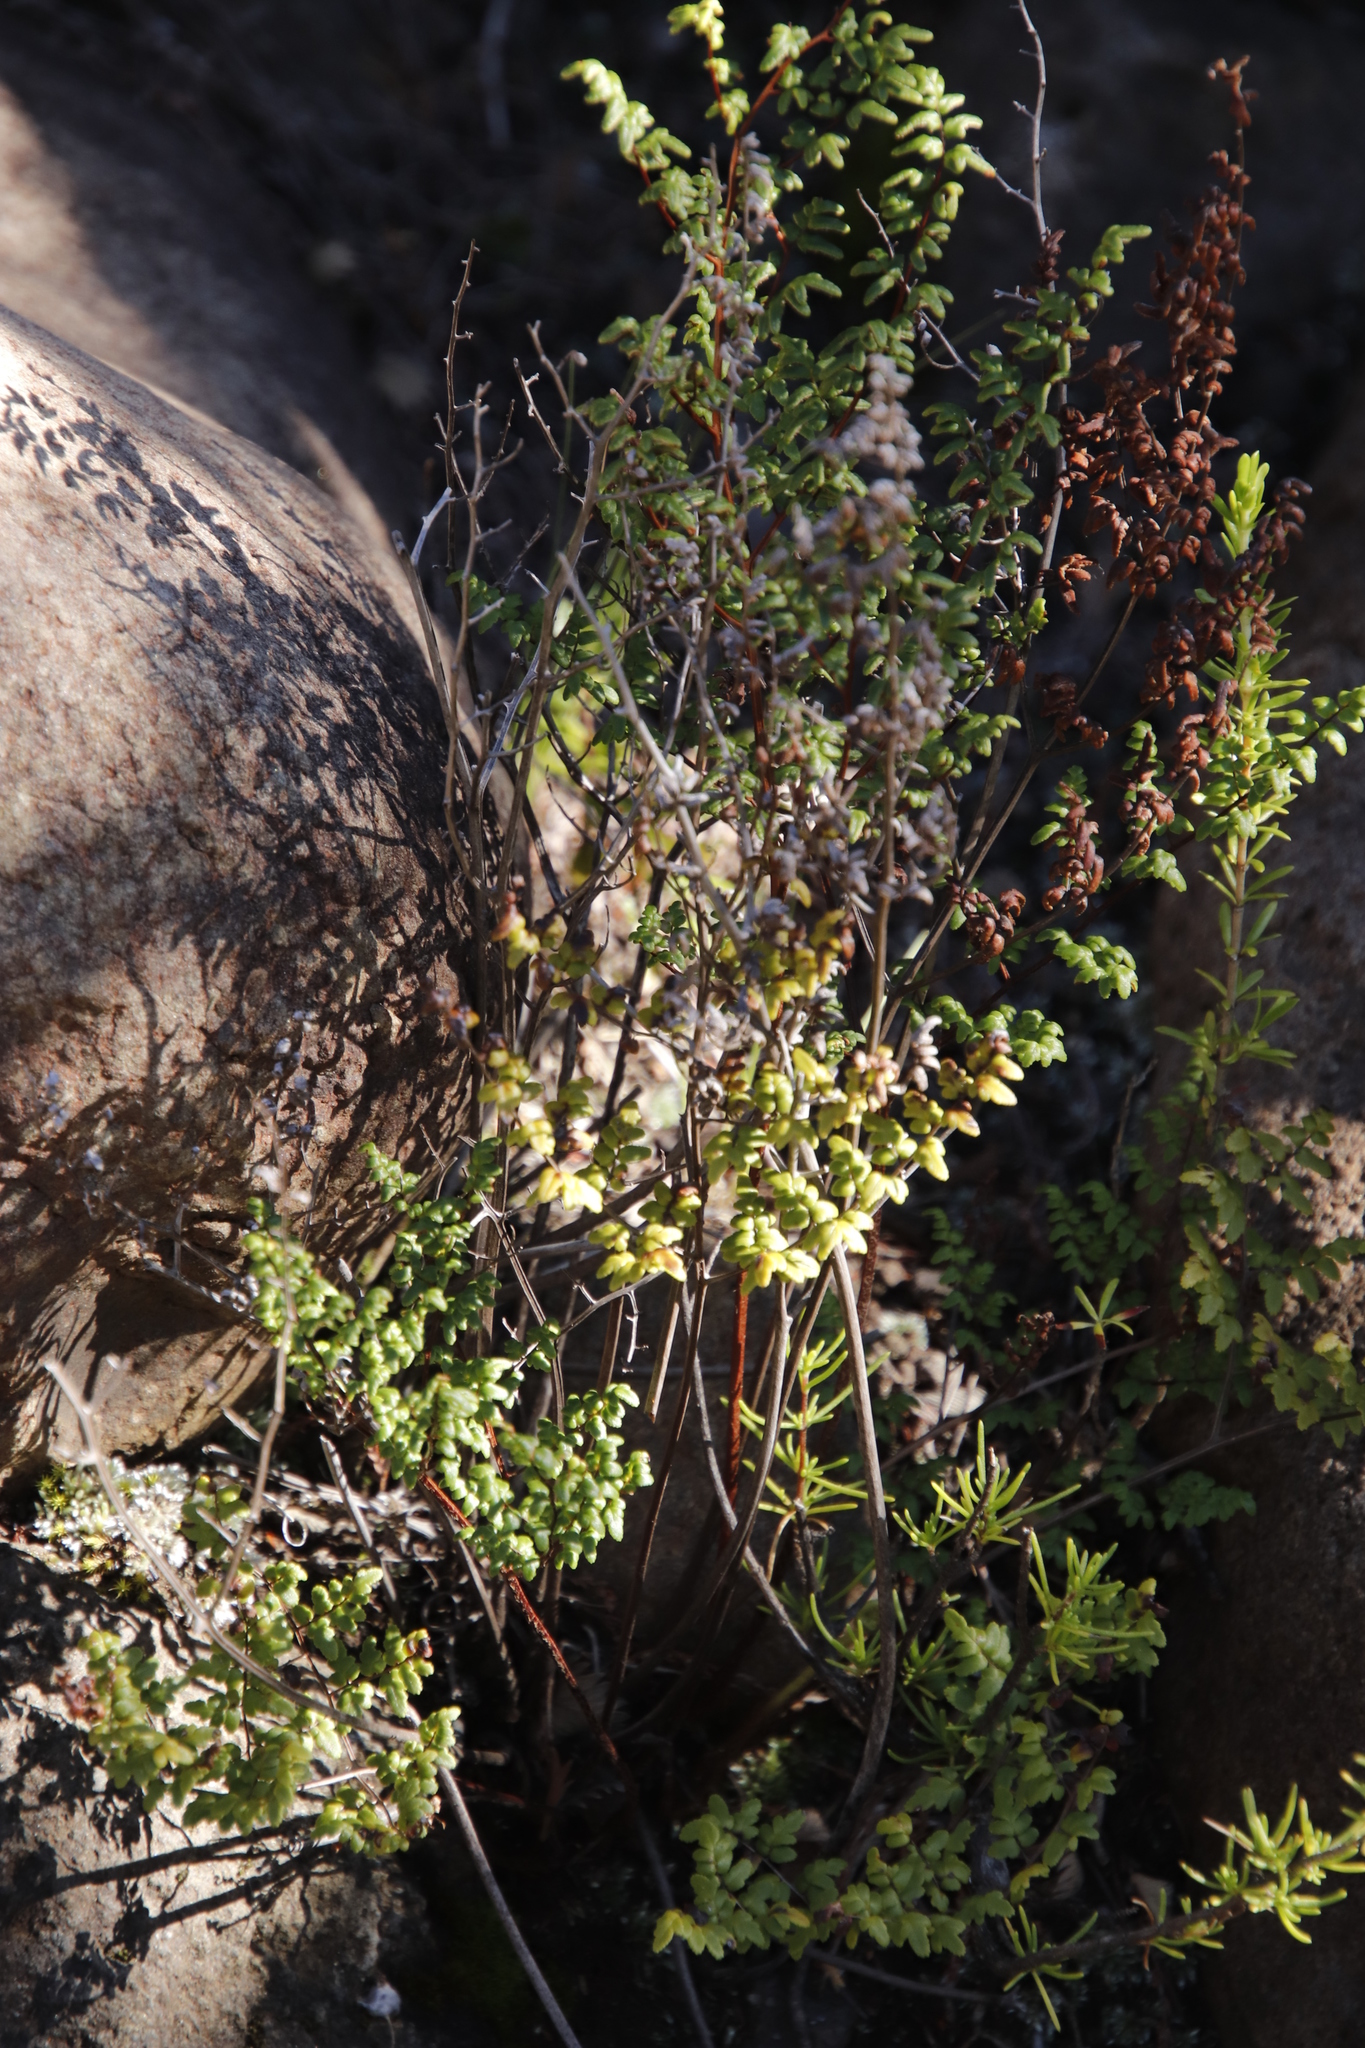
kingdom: Plantae
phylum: Tracheophyta
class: Polypodiopsida
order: Polypodiales
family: Pteridaceae
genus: Cheilanthes
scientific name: Cheilanthes quadripinnata
